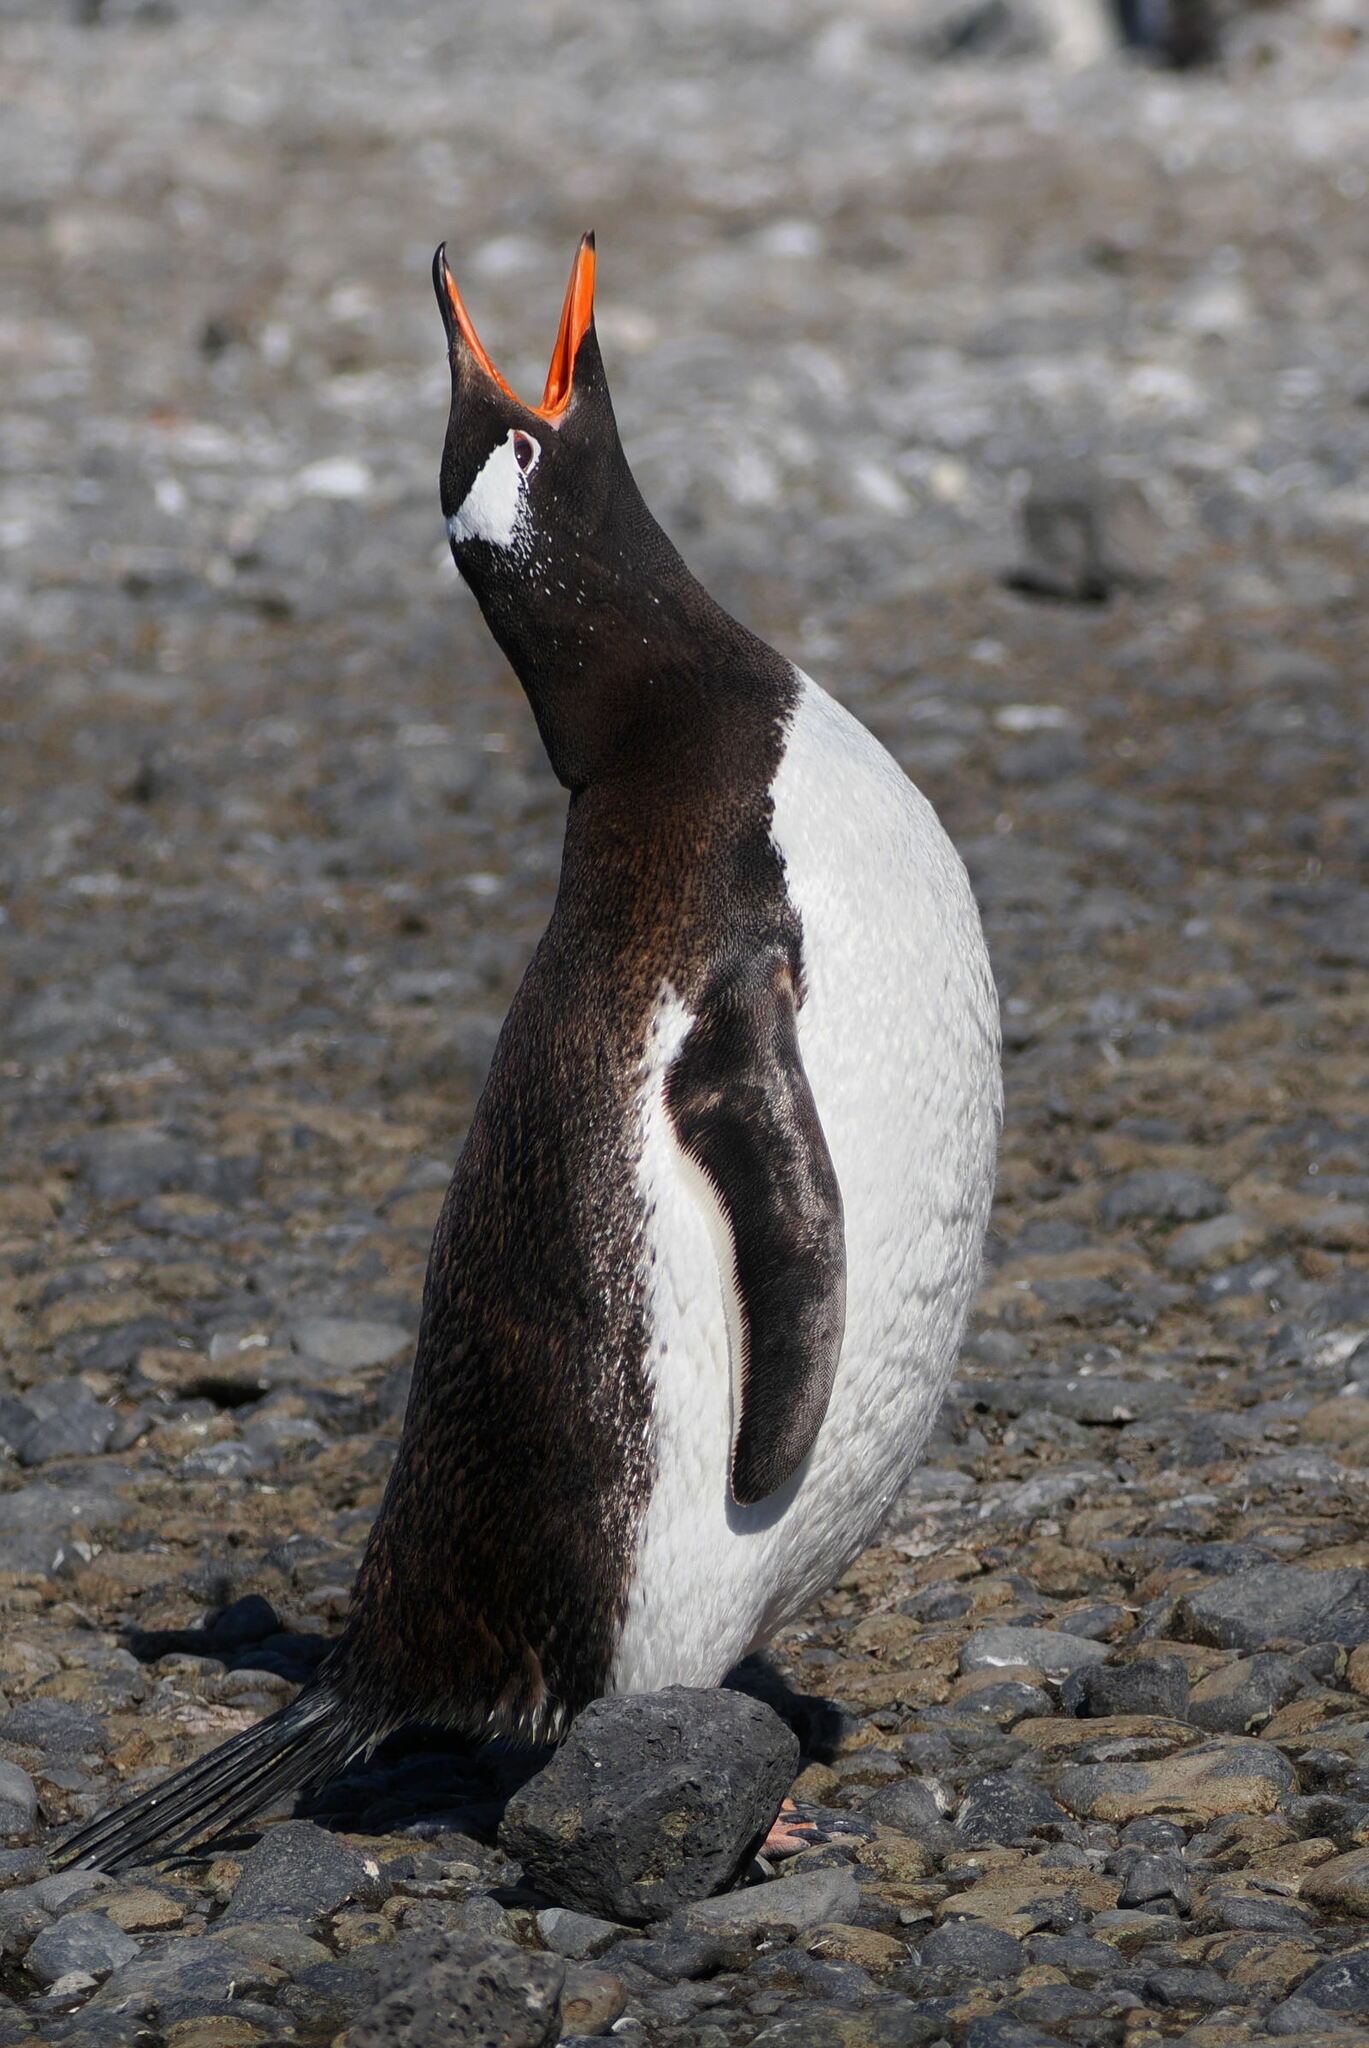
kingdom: Animalia
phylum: Chordata
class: Aves
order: Sphenisciformes
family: Spheniscidae
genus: Pygoscelis
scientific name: Pygoscelis papua
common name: Gentoo penguin
